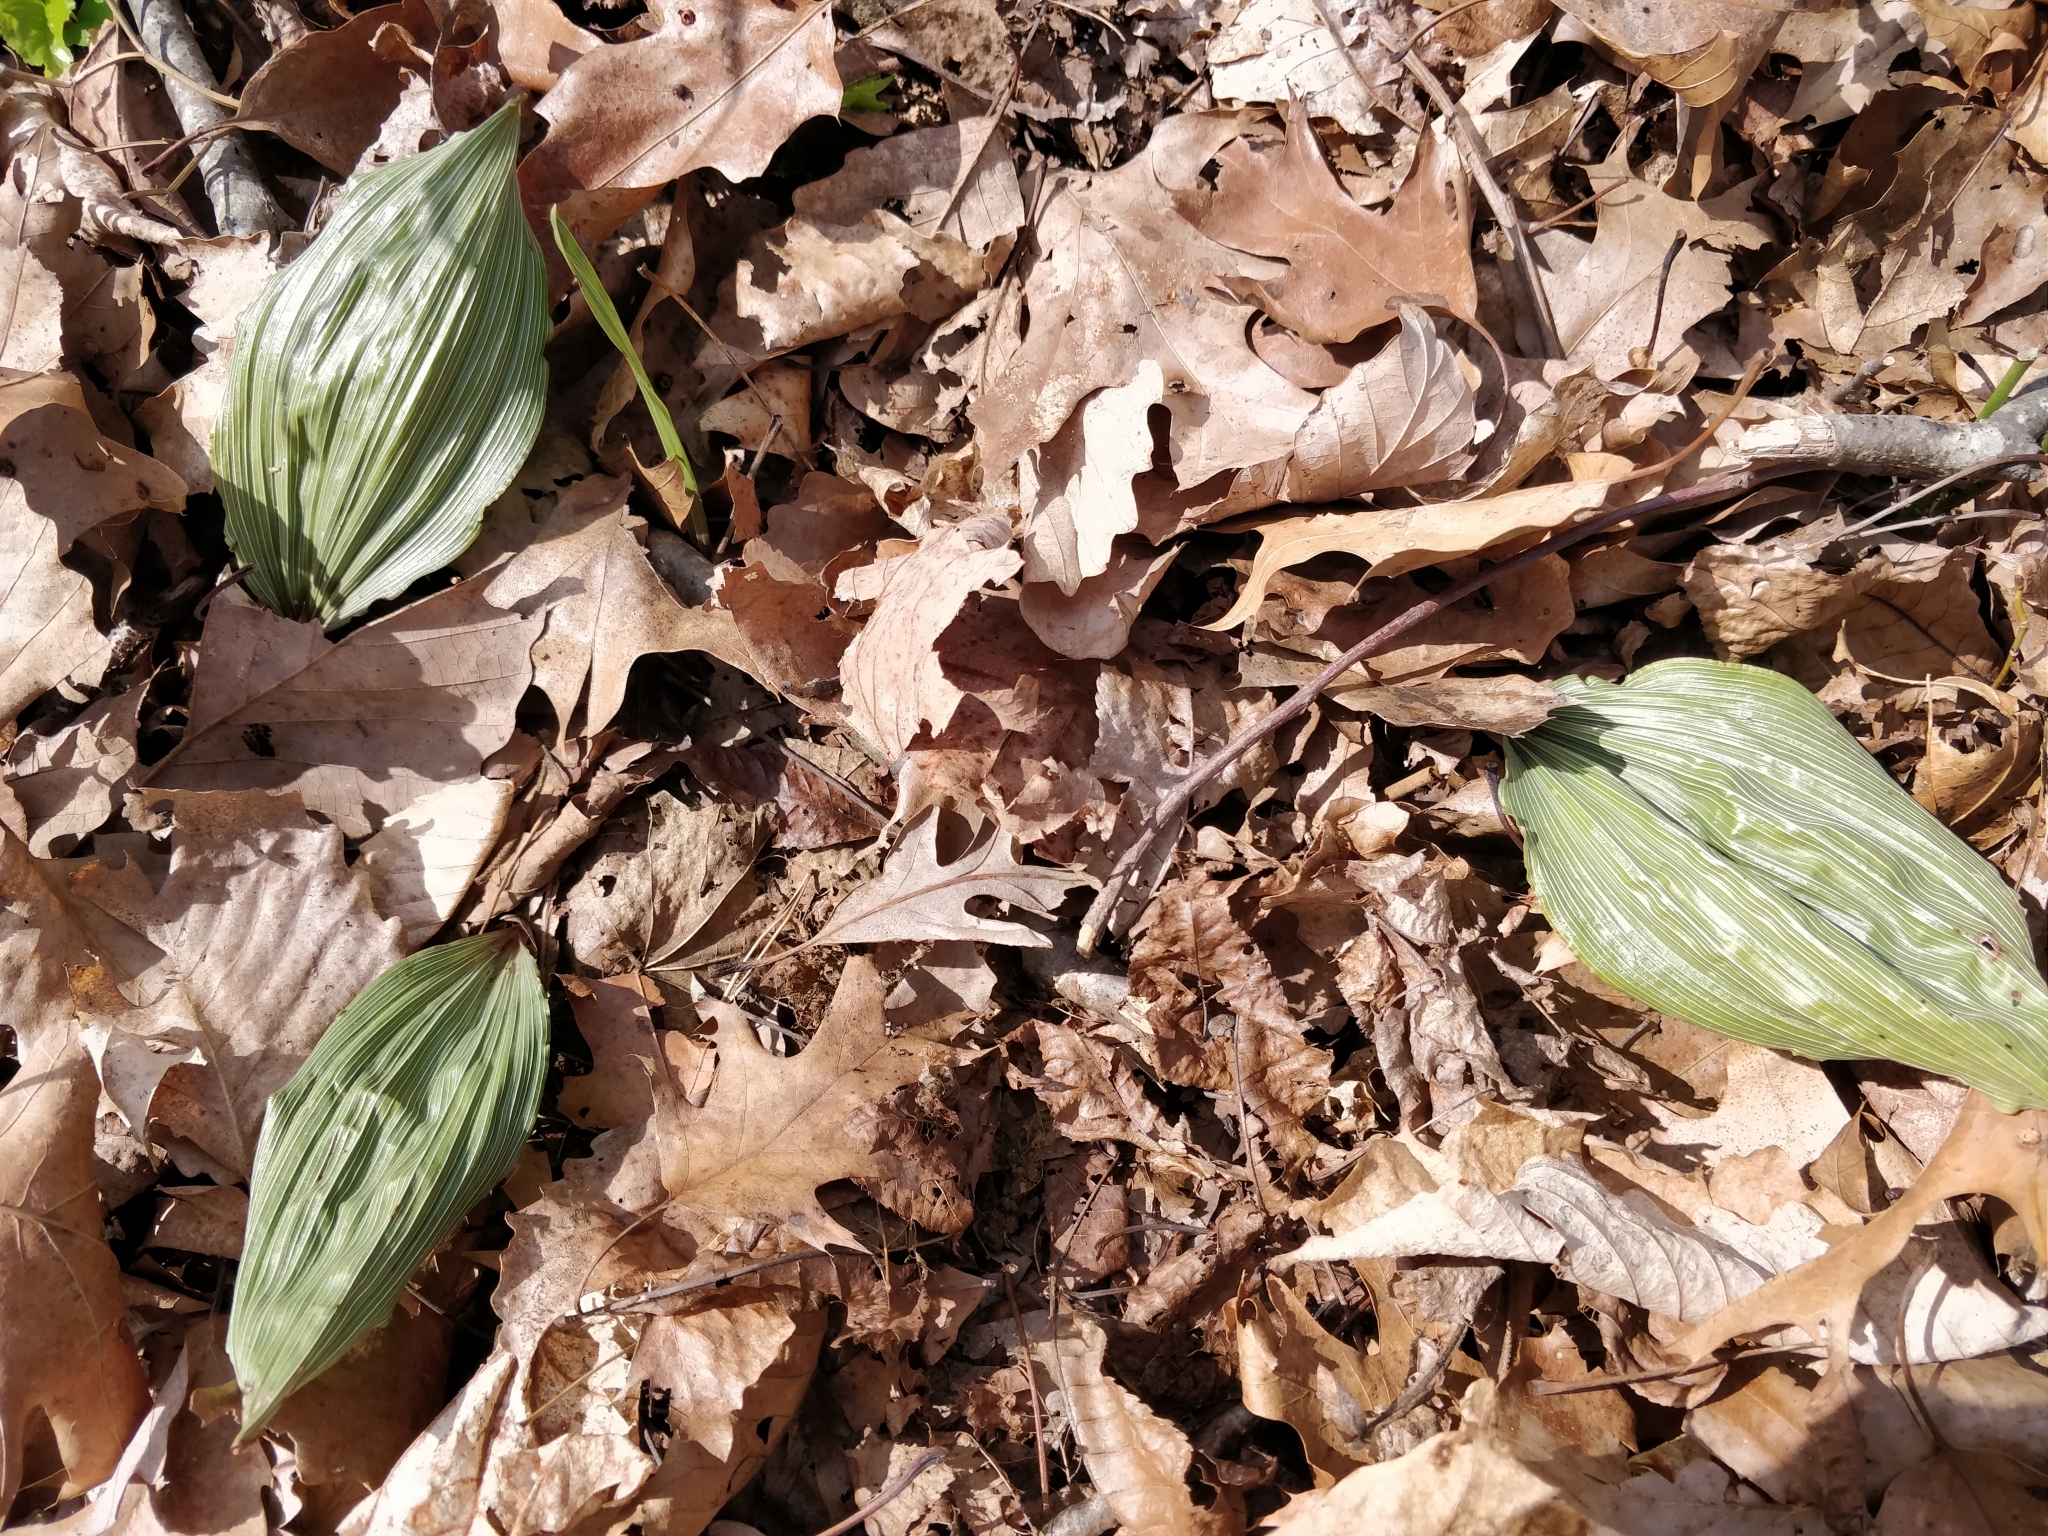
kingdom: Plantae
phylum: Tracheophyta
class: Liliopsida
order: Asparagales
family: Orchidaceae
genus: Aplectrum
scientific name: Aplectrum hyemale
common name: Adam-and-eve
